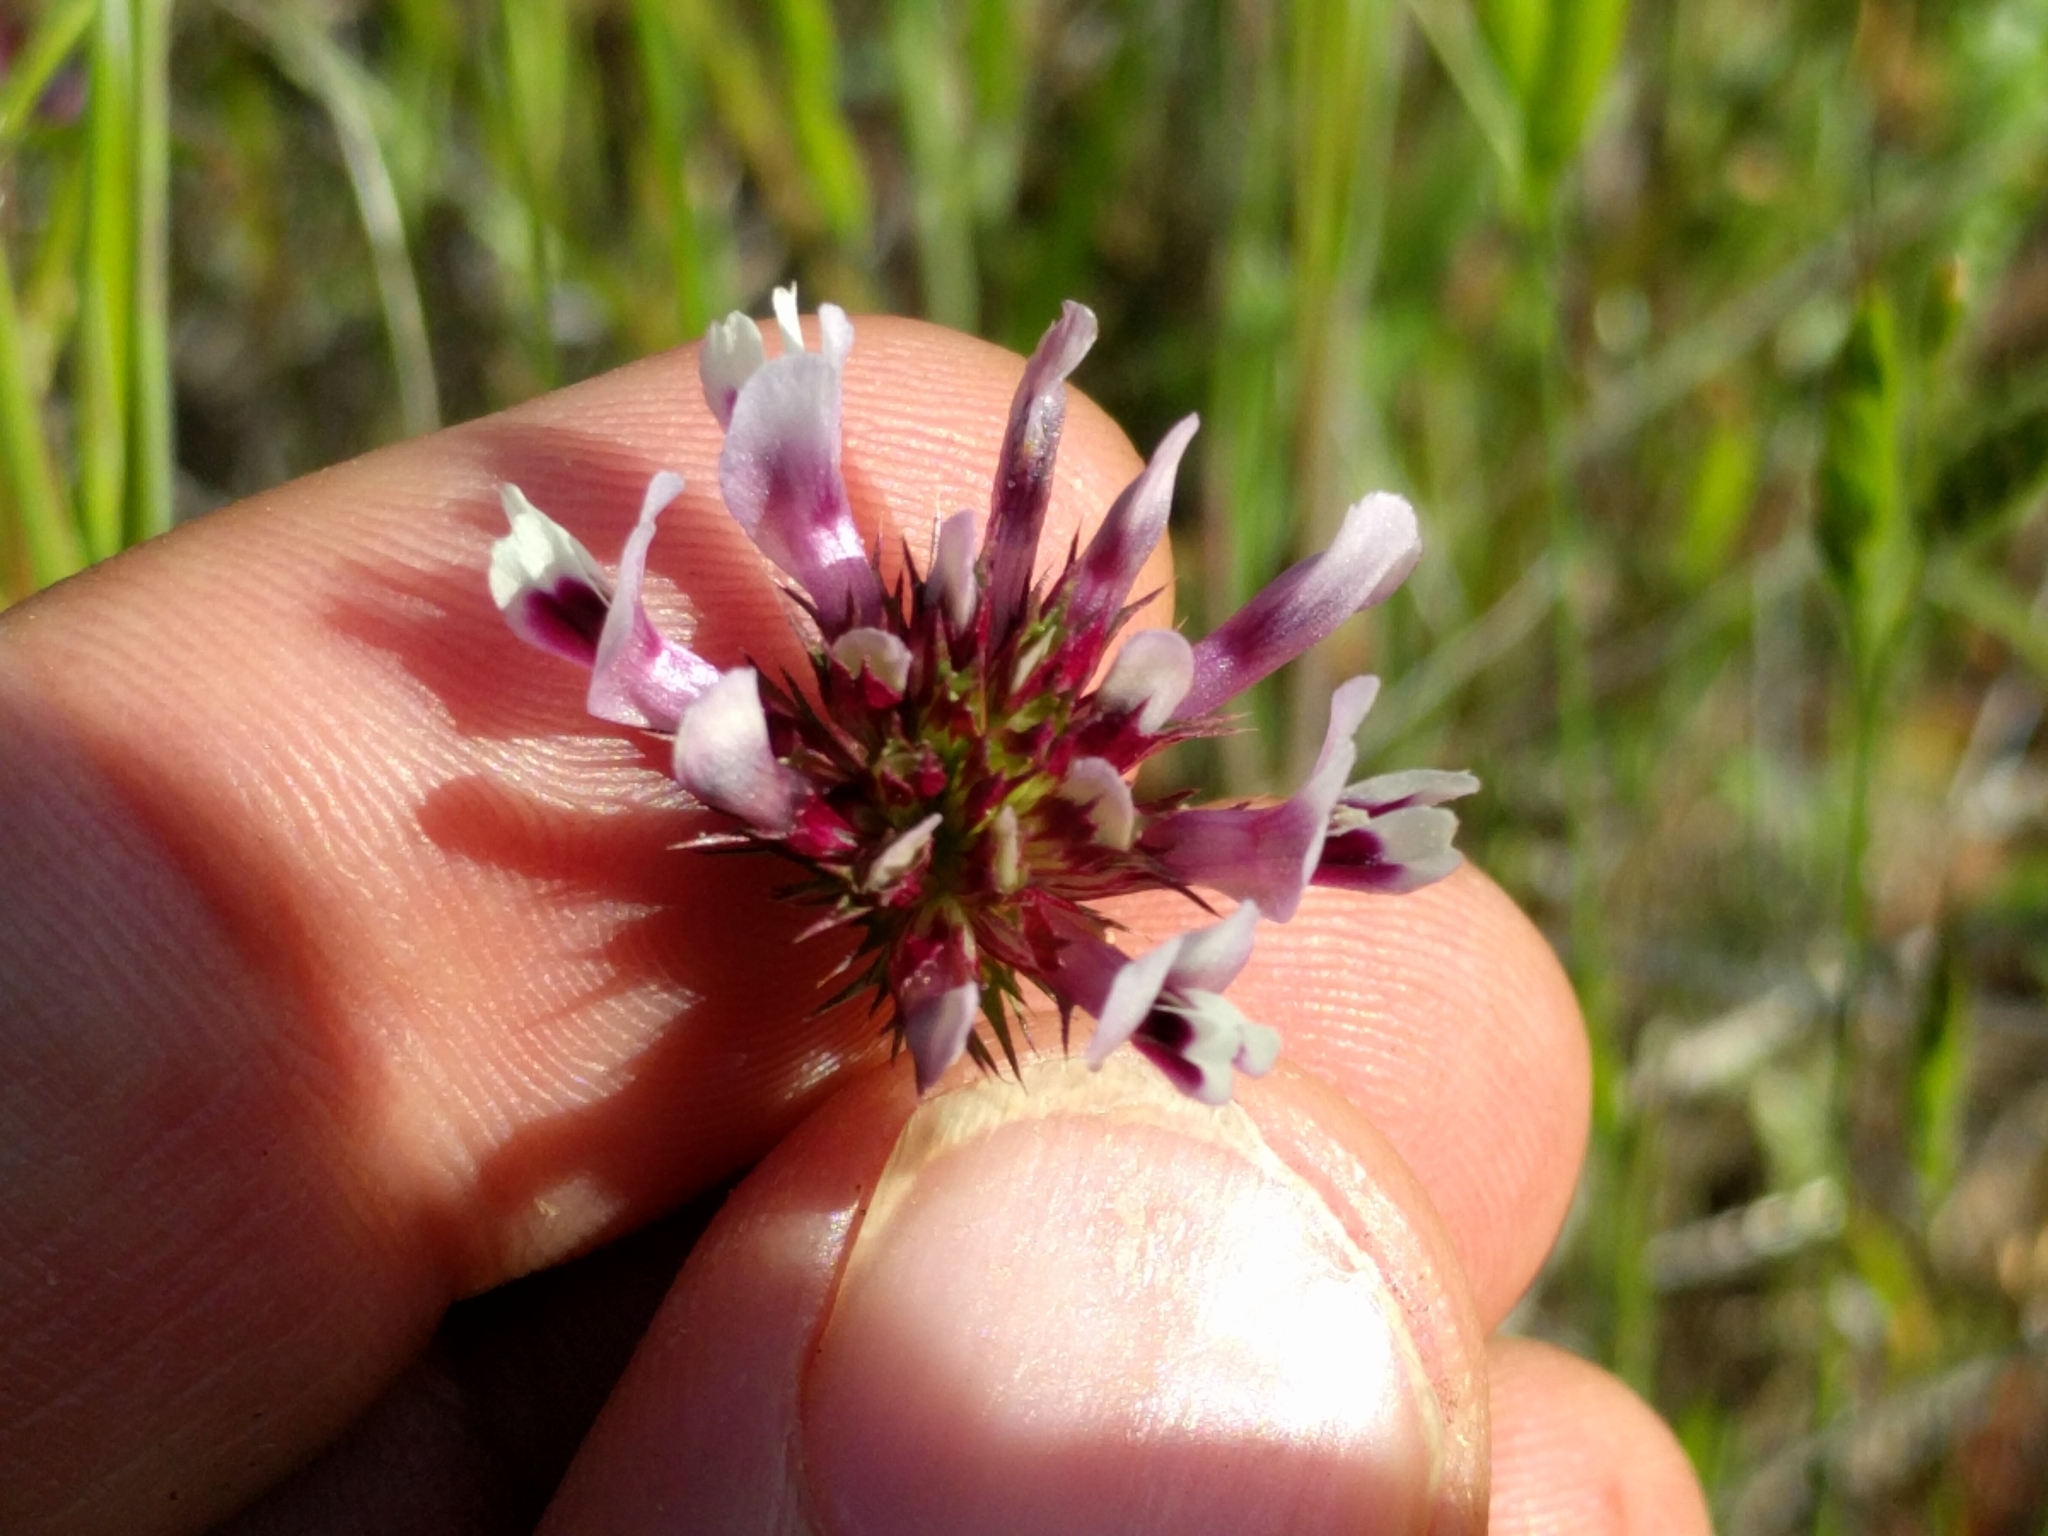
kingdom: Plantae
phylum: Tracheophyta
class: Magnoliopsida
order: Fabales
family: Fabaceae
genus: Trifolium
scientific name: Trifolium willdenovii
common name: Tomcat clover
